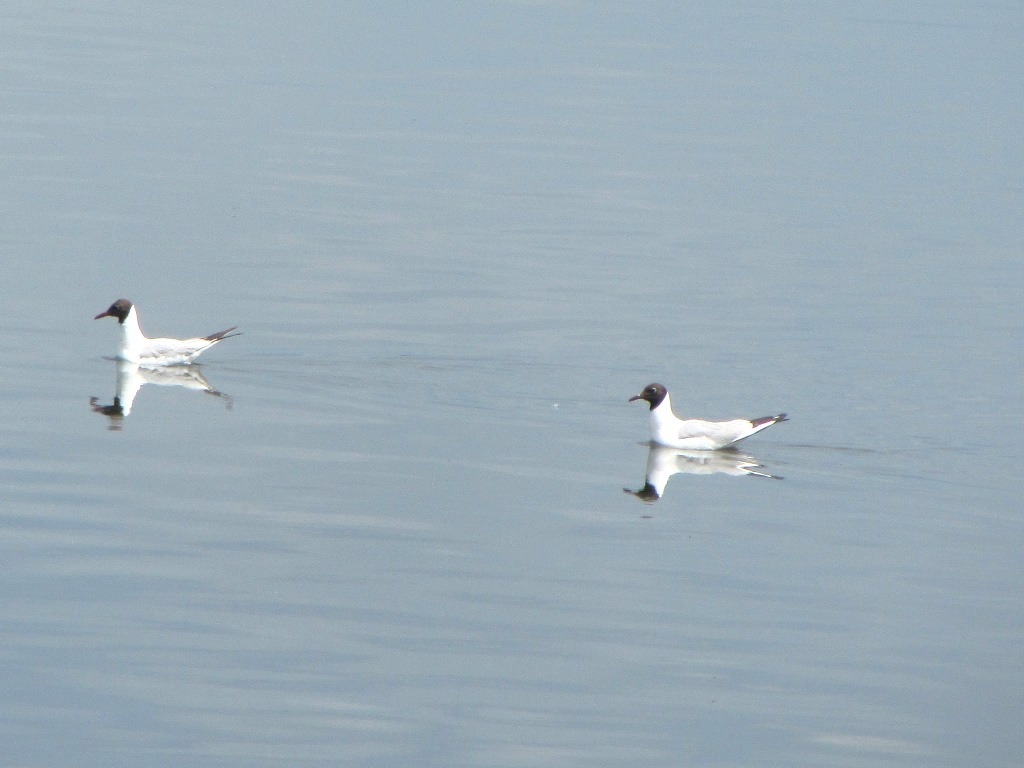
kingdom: Animalia
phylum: Chordata
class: Aves
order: Charadriiformes
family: Laridae
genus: Chroicocephalus
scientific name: Chroicocephalus ridibundus
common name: Black-headed gull
